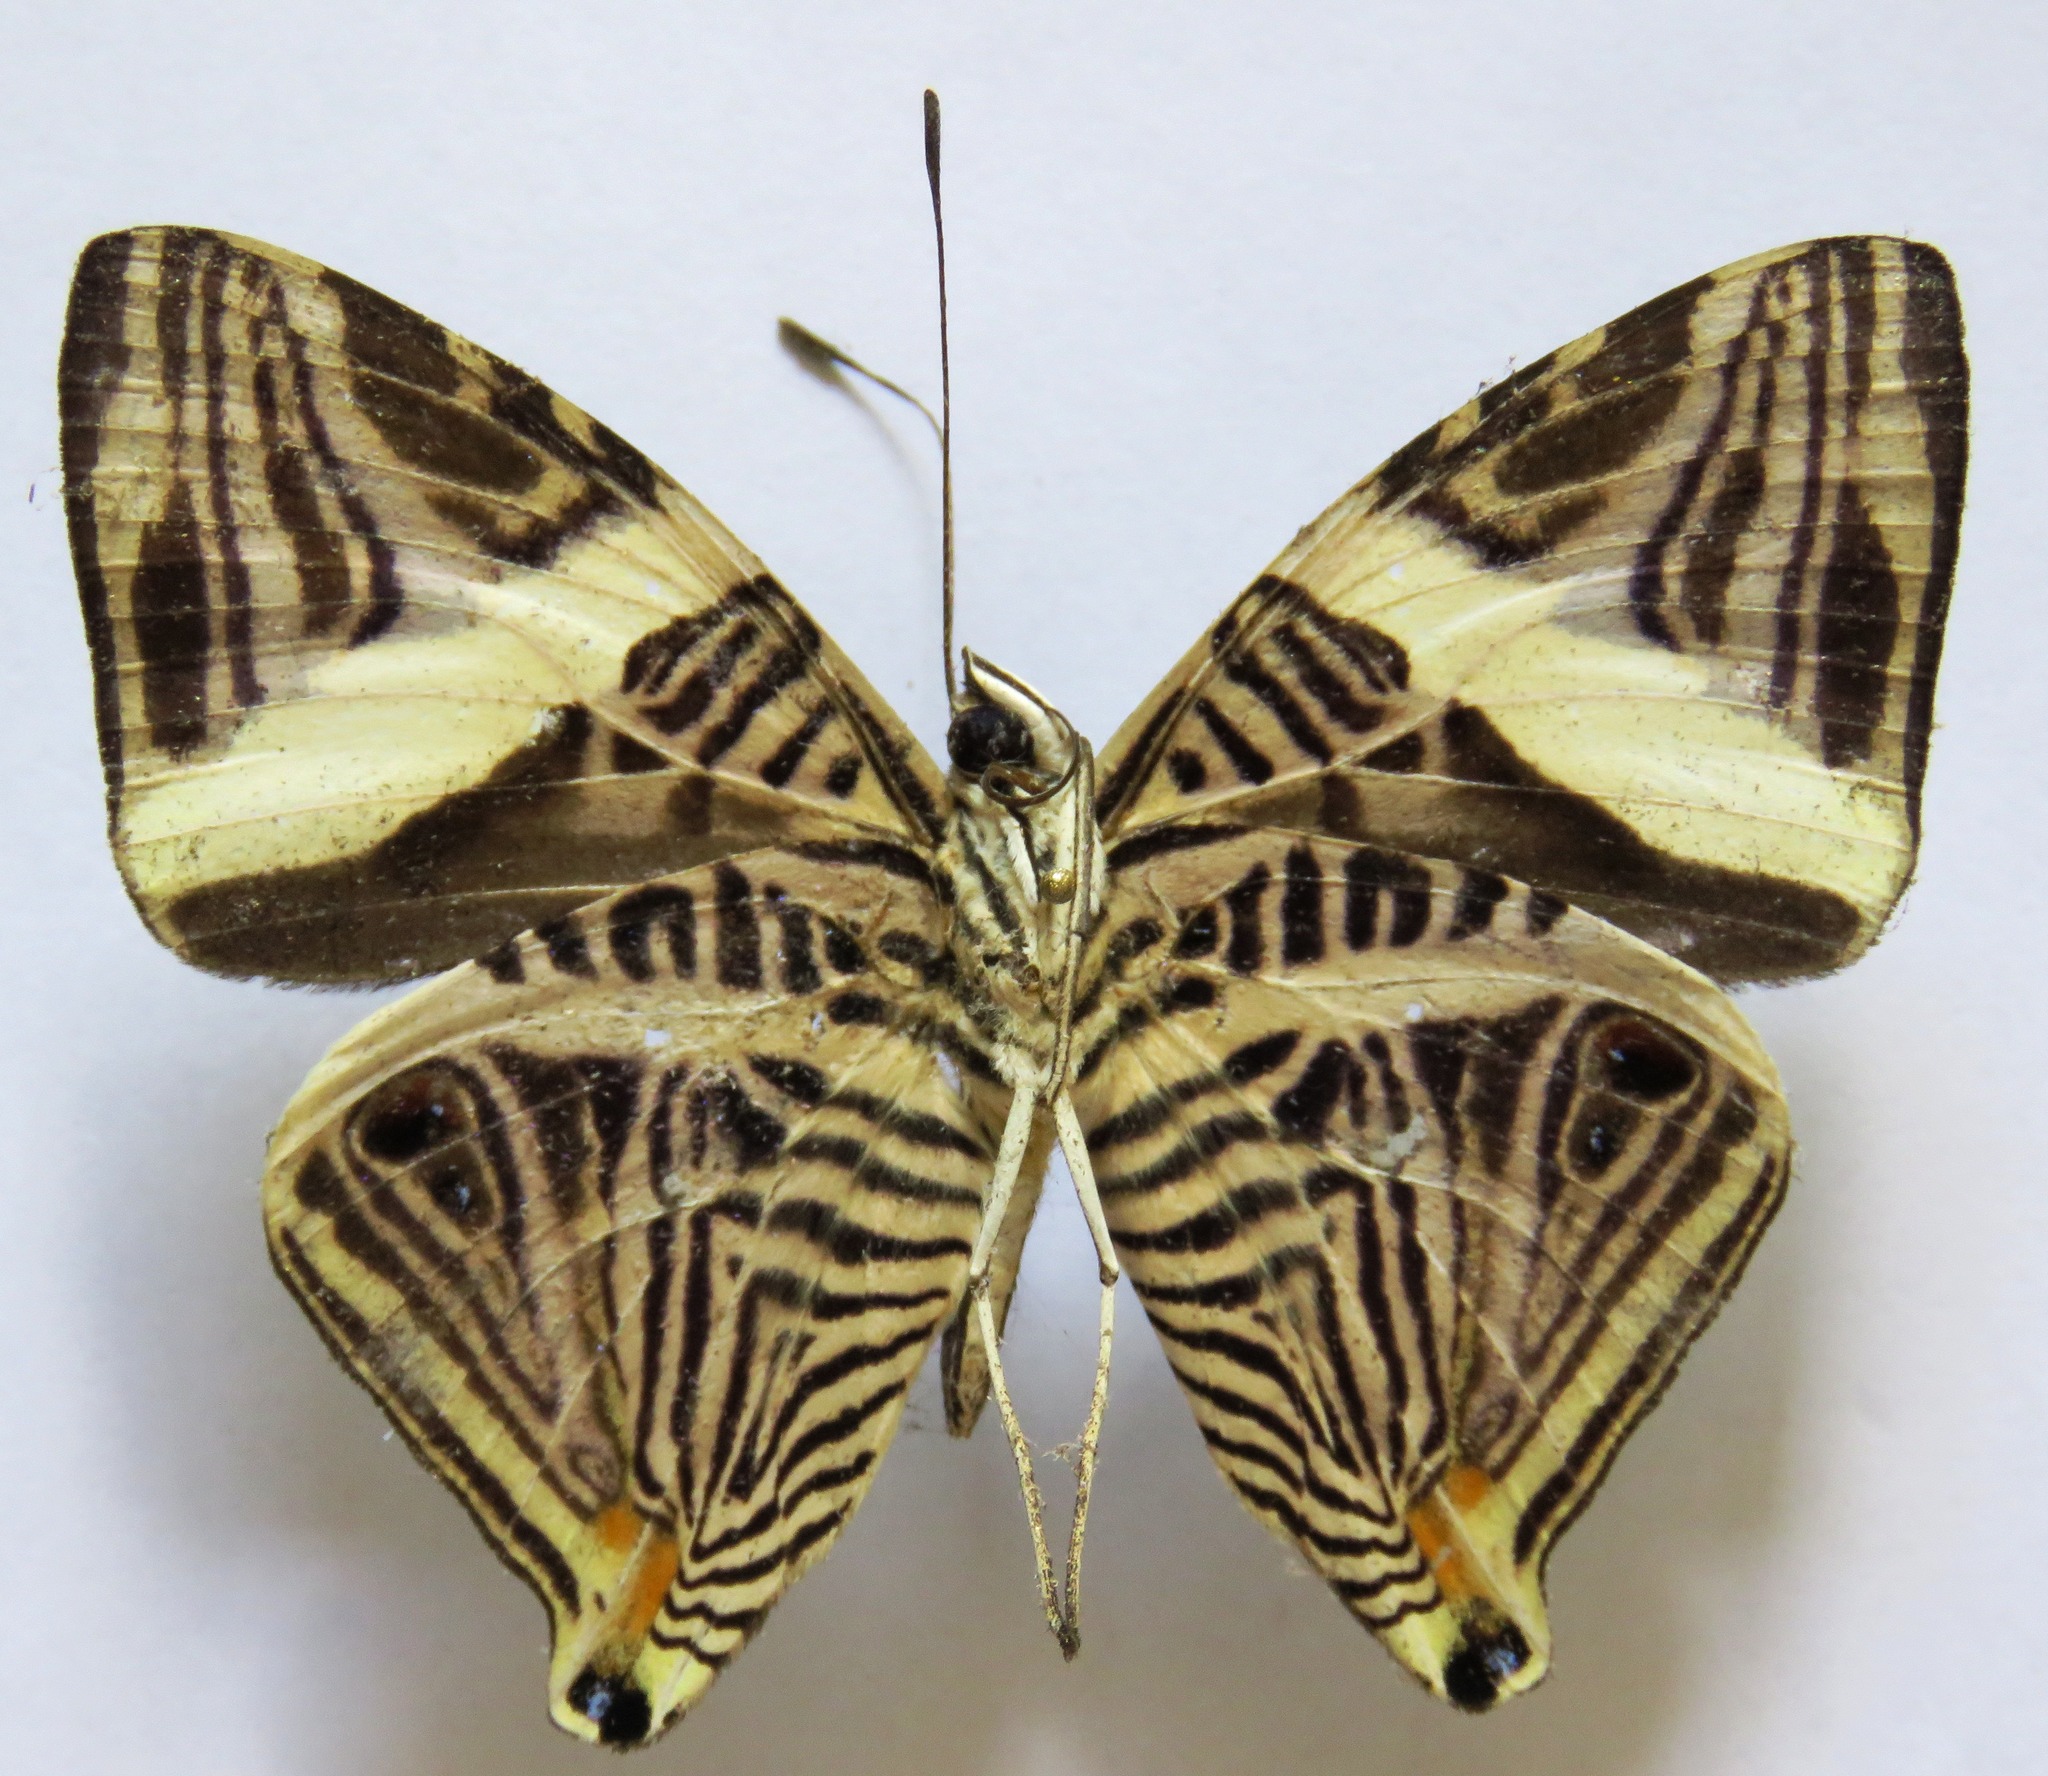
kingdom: Animalia
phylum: Arthropoda
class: Insecta
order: Lepidoptera
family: Nymphalidae
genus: Colobura
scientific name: Colobura dirce
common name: Dirce beauty
